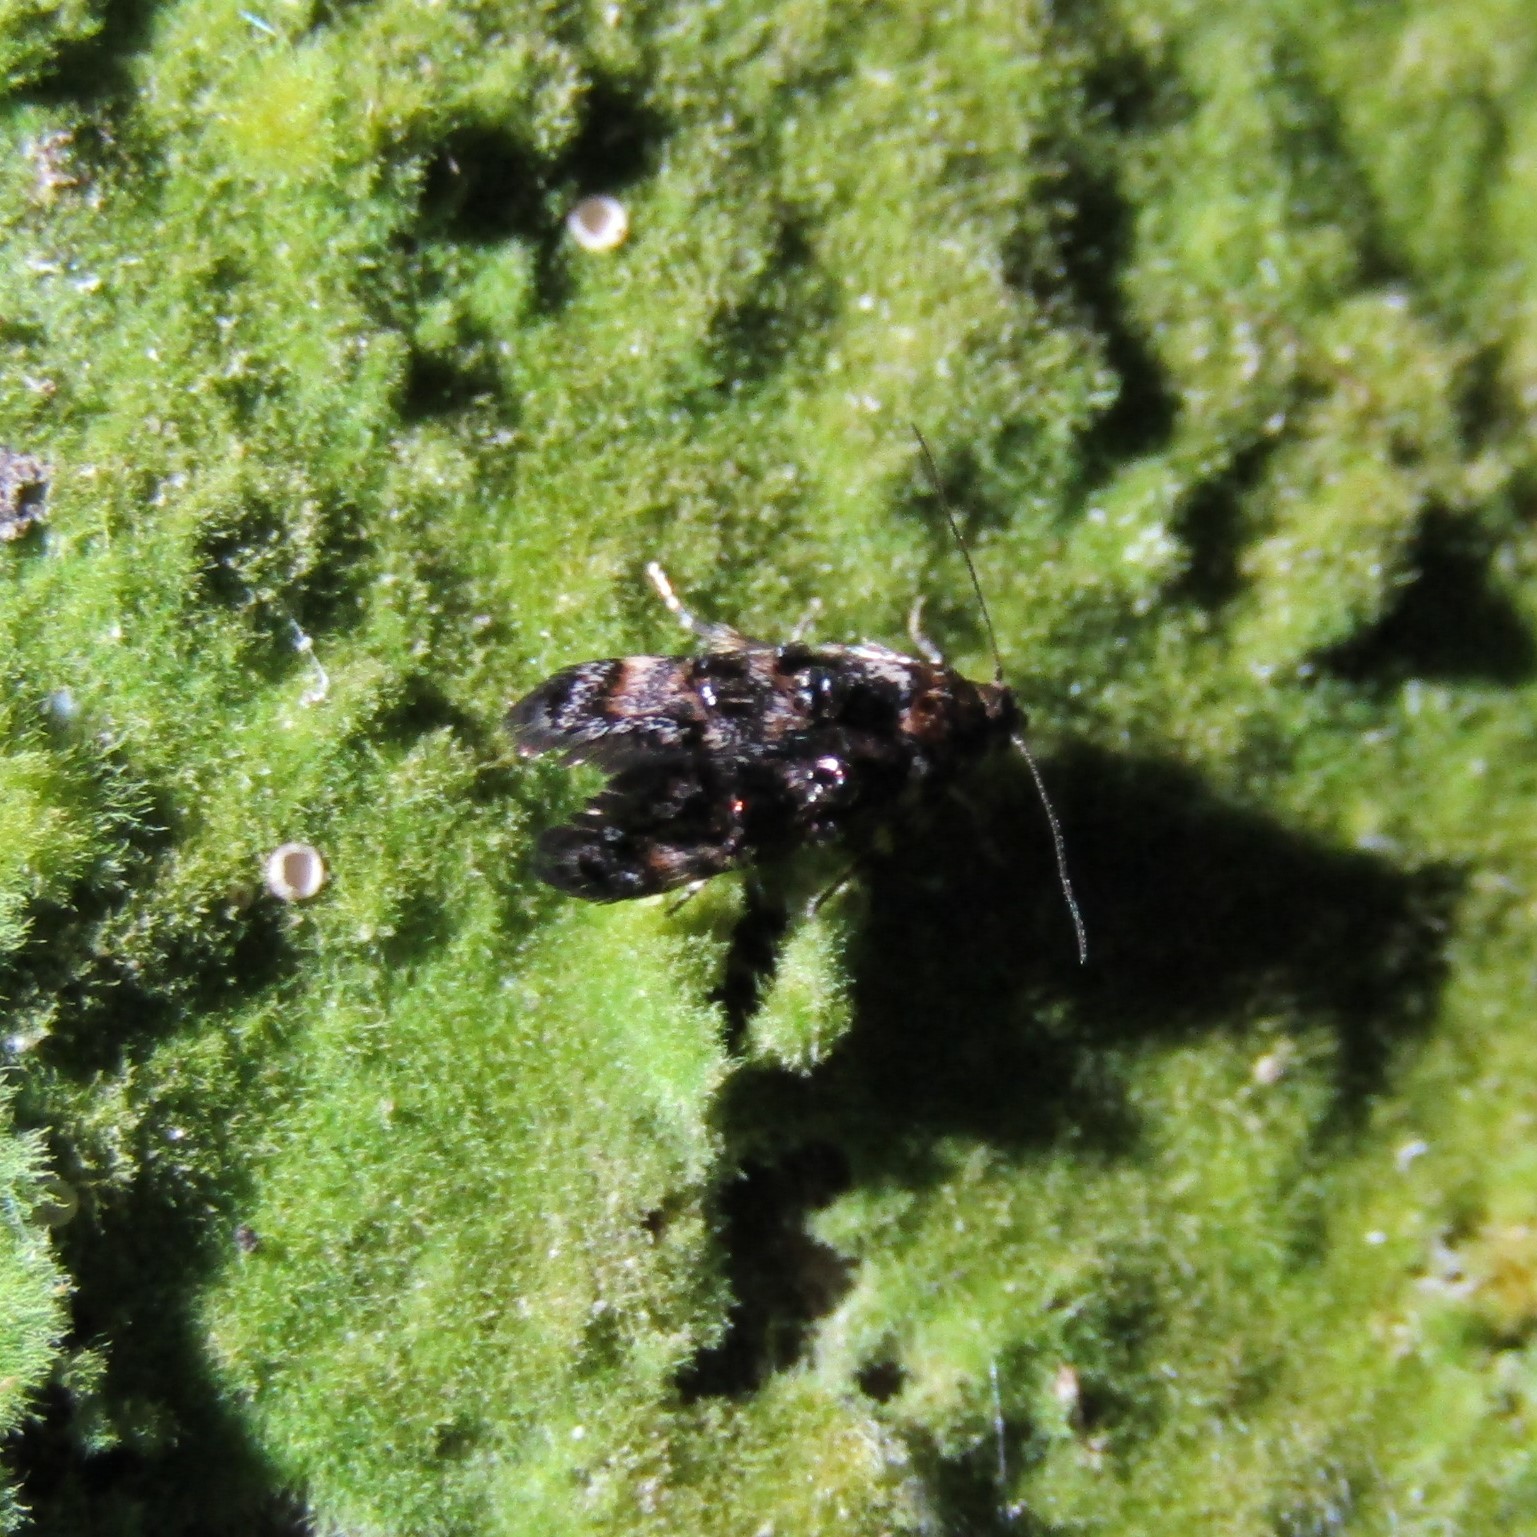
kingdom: Animalia
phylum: Arthropoda
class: Insecta
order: Lepidoptera
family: Oecophoridae
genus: Corocosma
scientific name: Corocosma memorabilis
